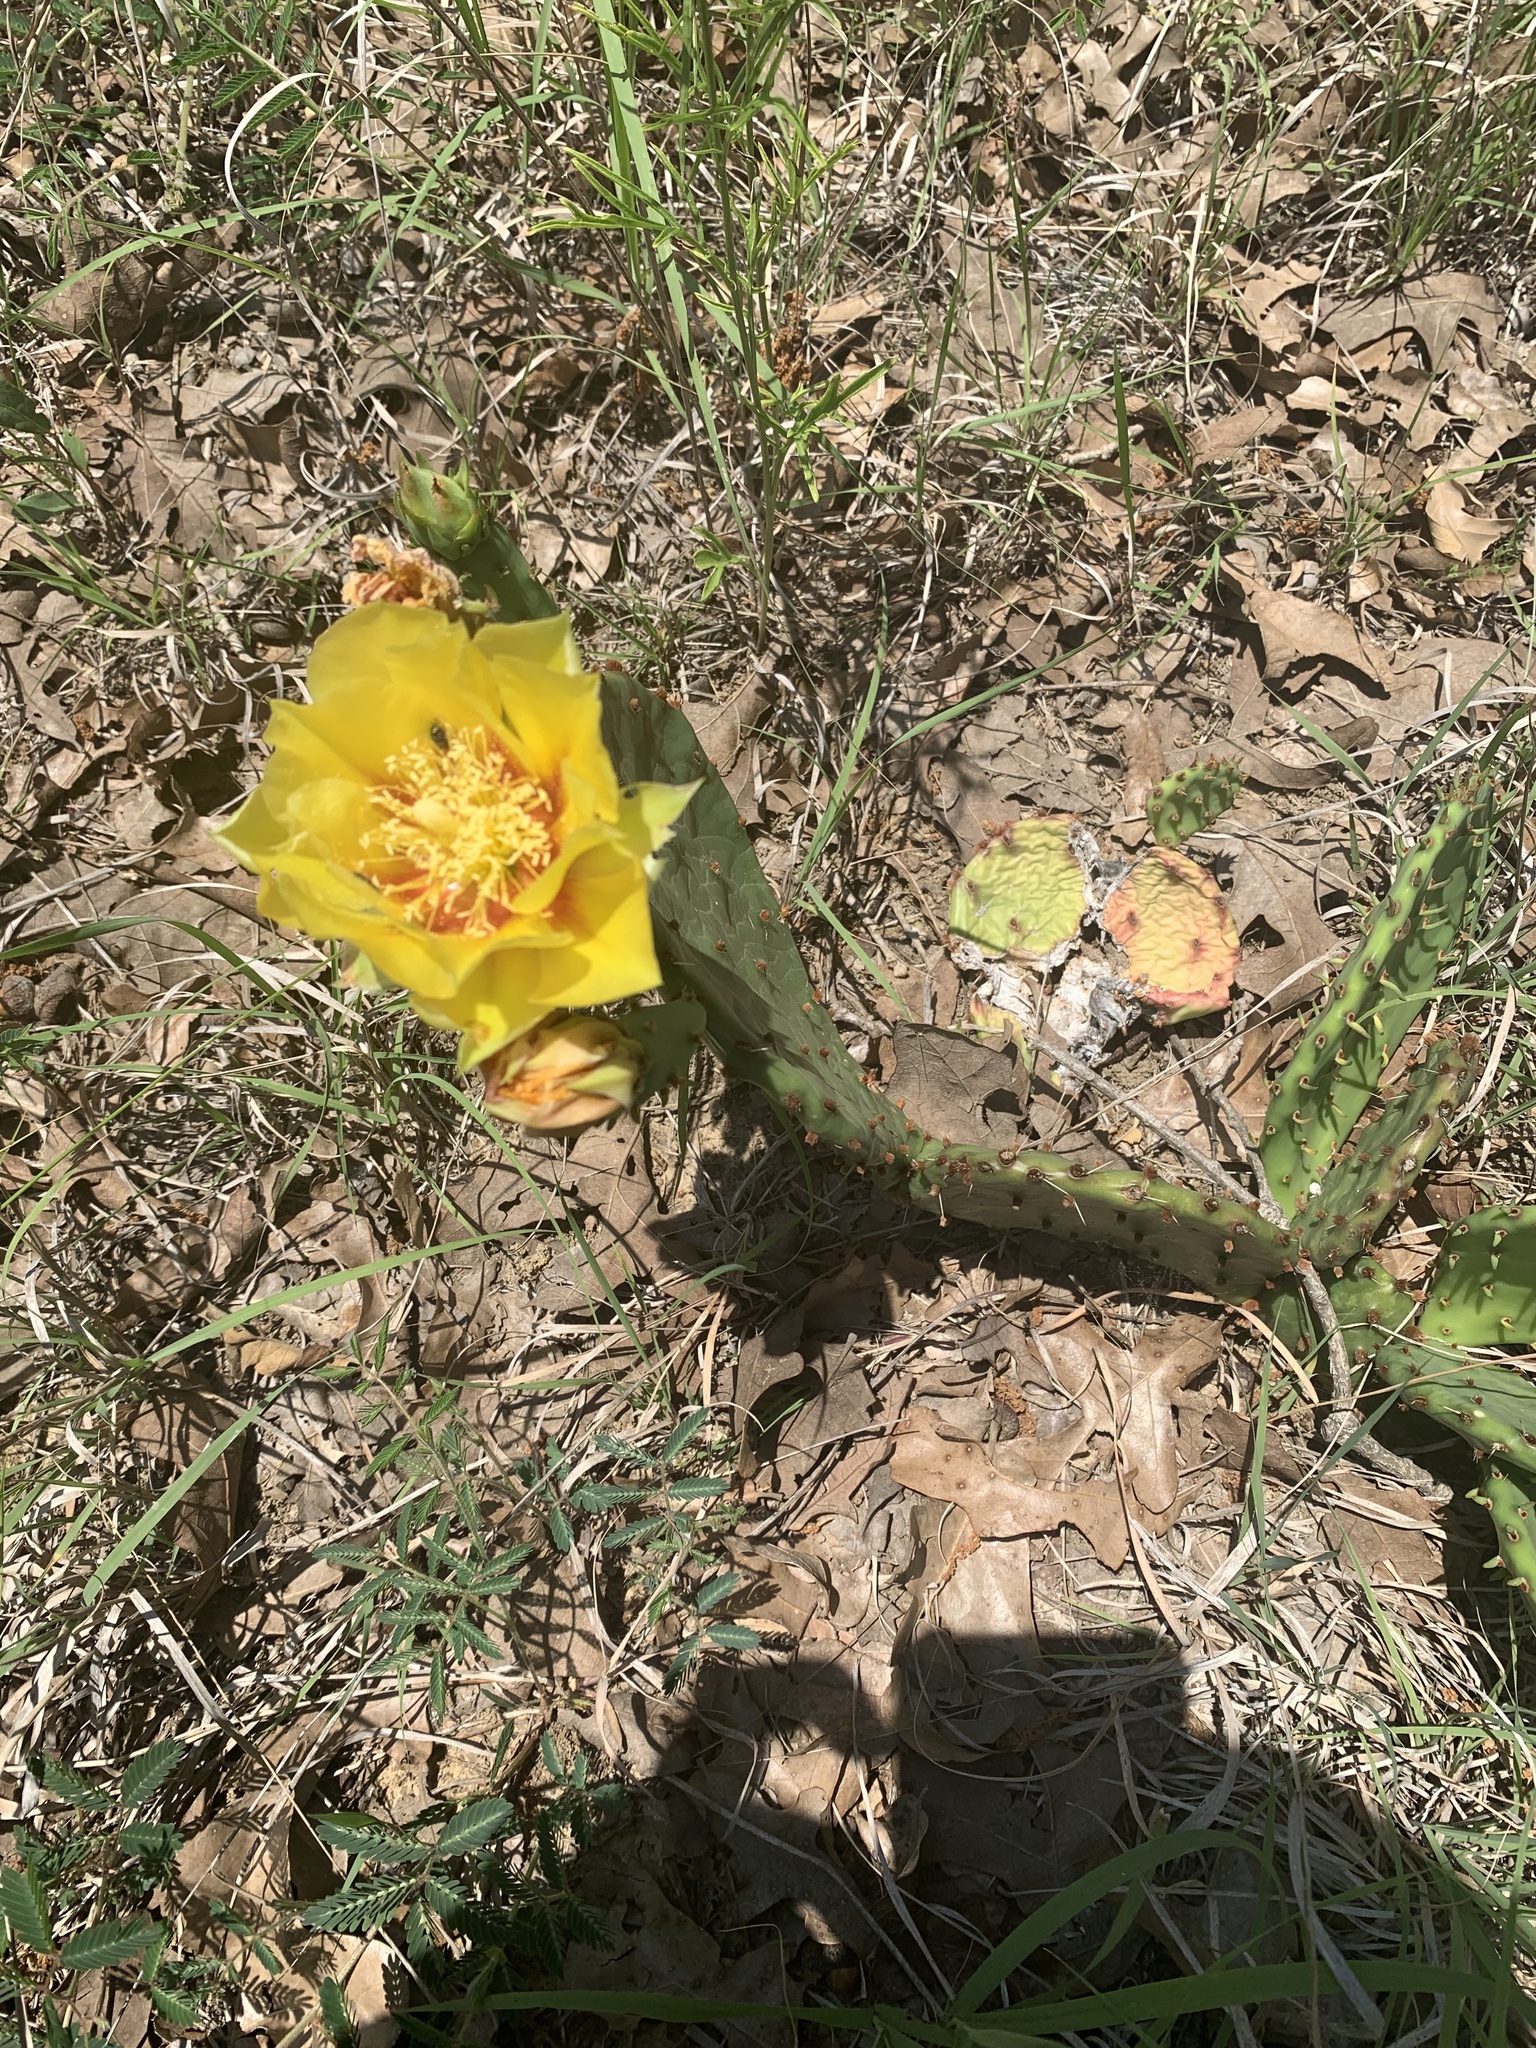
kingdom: Plantae
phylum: Tracheophyta
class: Magnoliopsida
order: Caryophyllales
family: Cactaceae
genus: Opuntia
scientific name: Opuntia macrorhiza
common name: Grassland pricklypear
